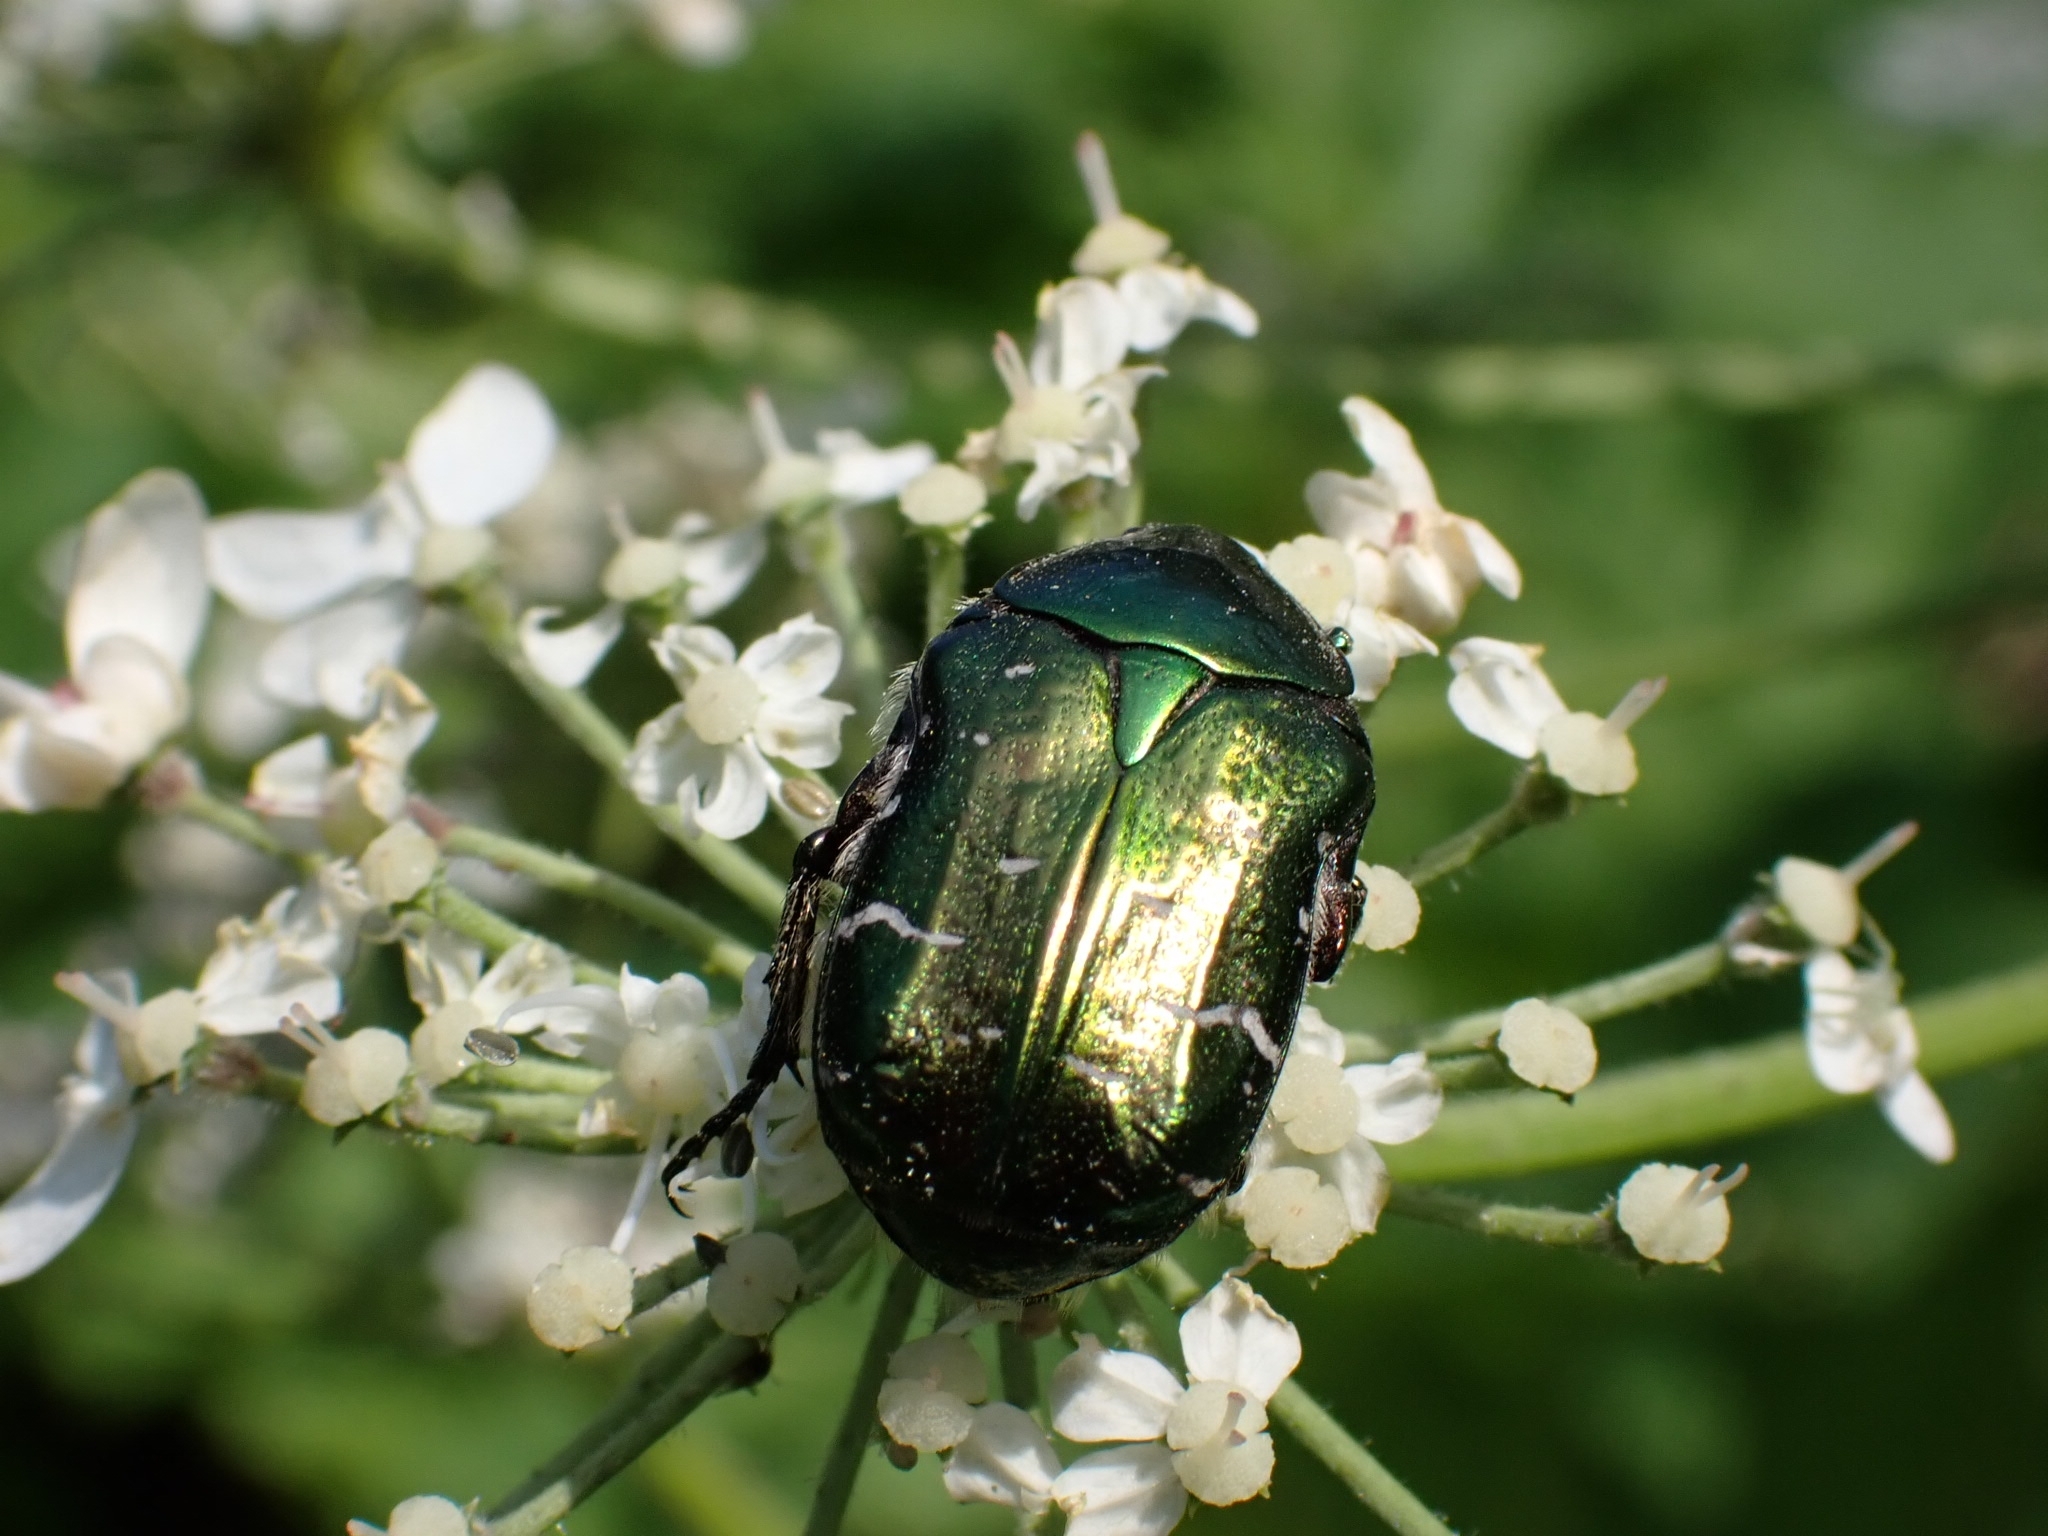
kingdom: Animalia
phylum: Arthropoda
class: Insecta
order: Coleoptera
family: Scarabaeidae
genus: Cetonia
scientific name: Cetonia aurata
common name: Rose chafer
